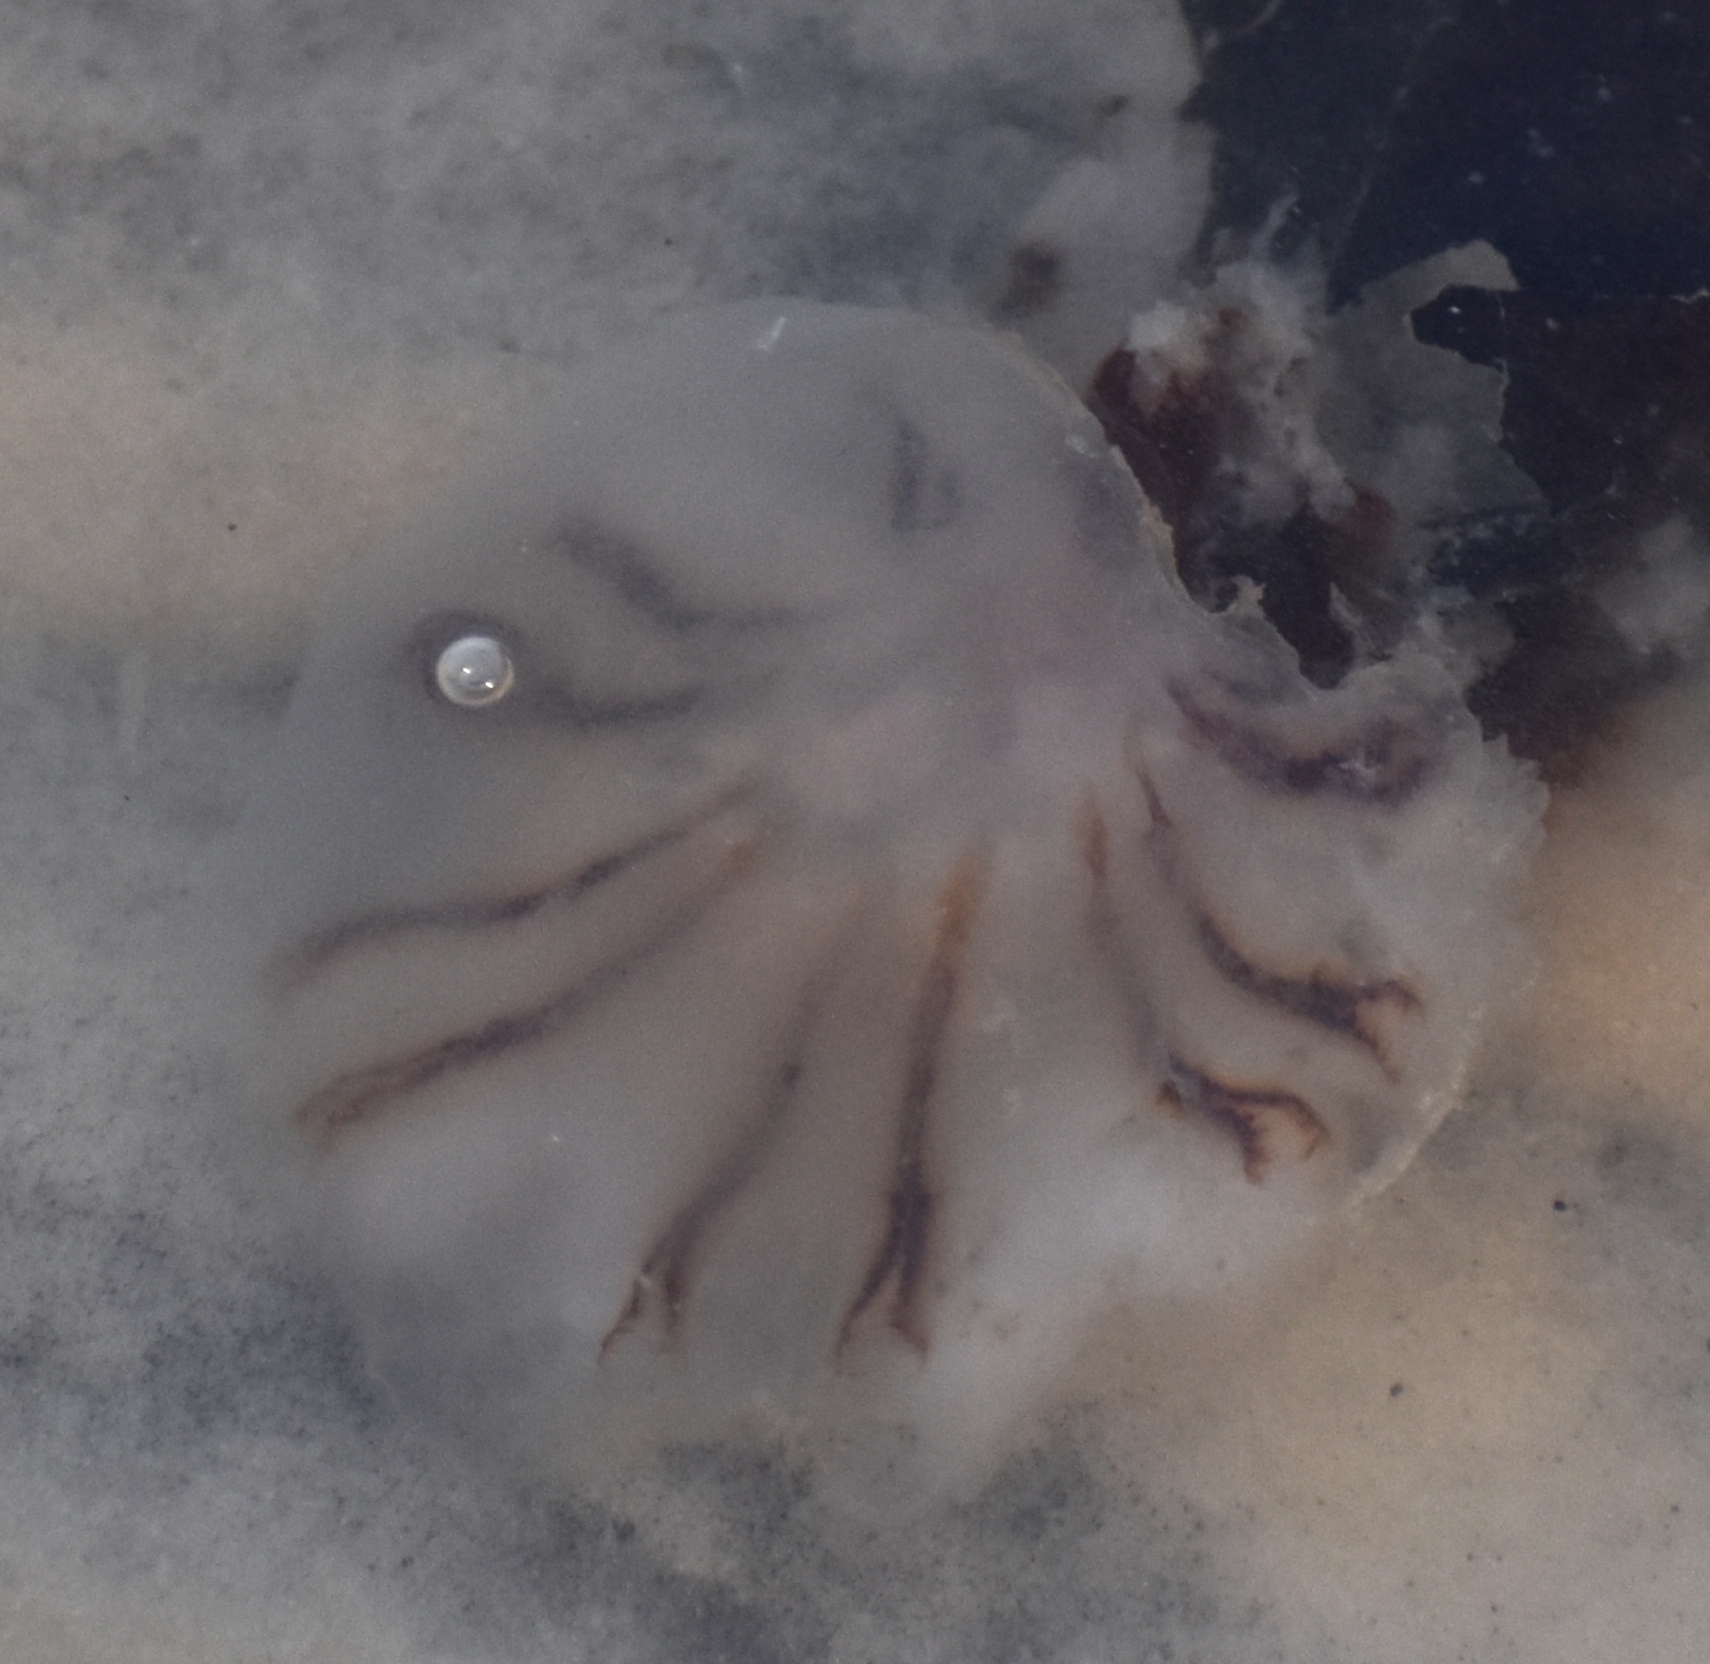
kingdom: Animalia
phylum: Cnidaria
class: Scyphozoa
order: Semaeostomeae
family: Cyaneidae
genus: Cyanea
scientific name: Cyanea versicolor
